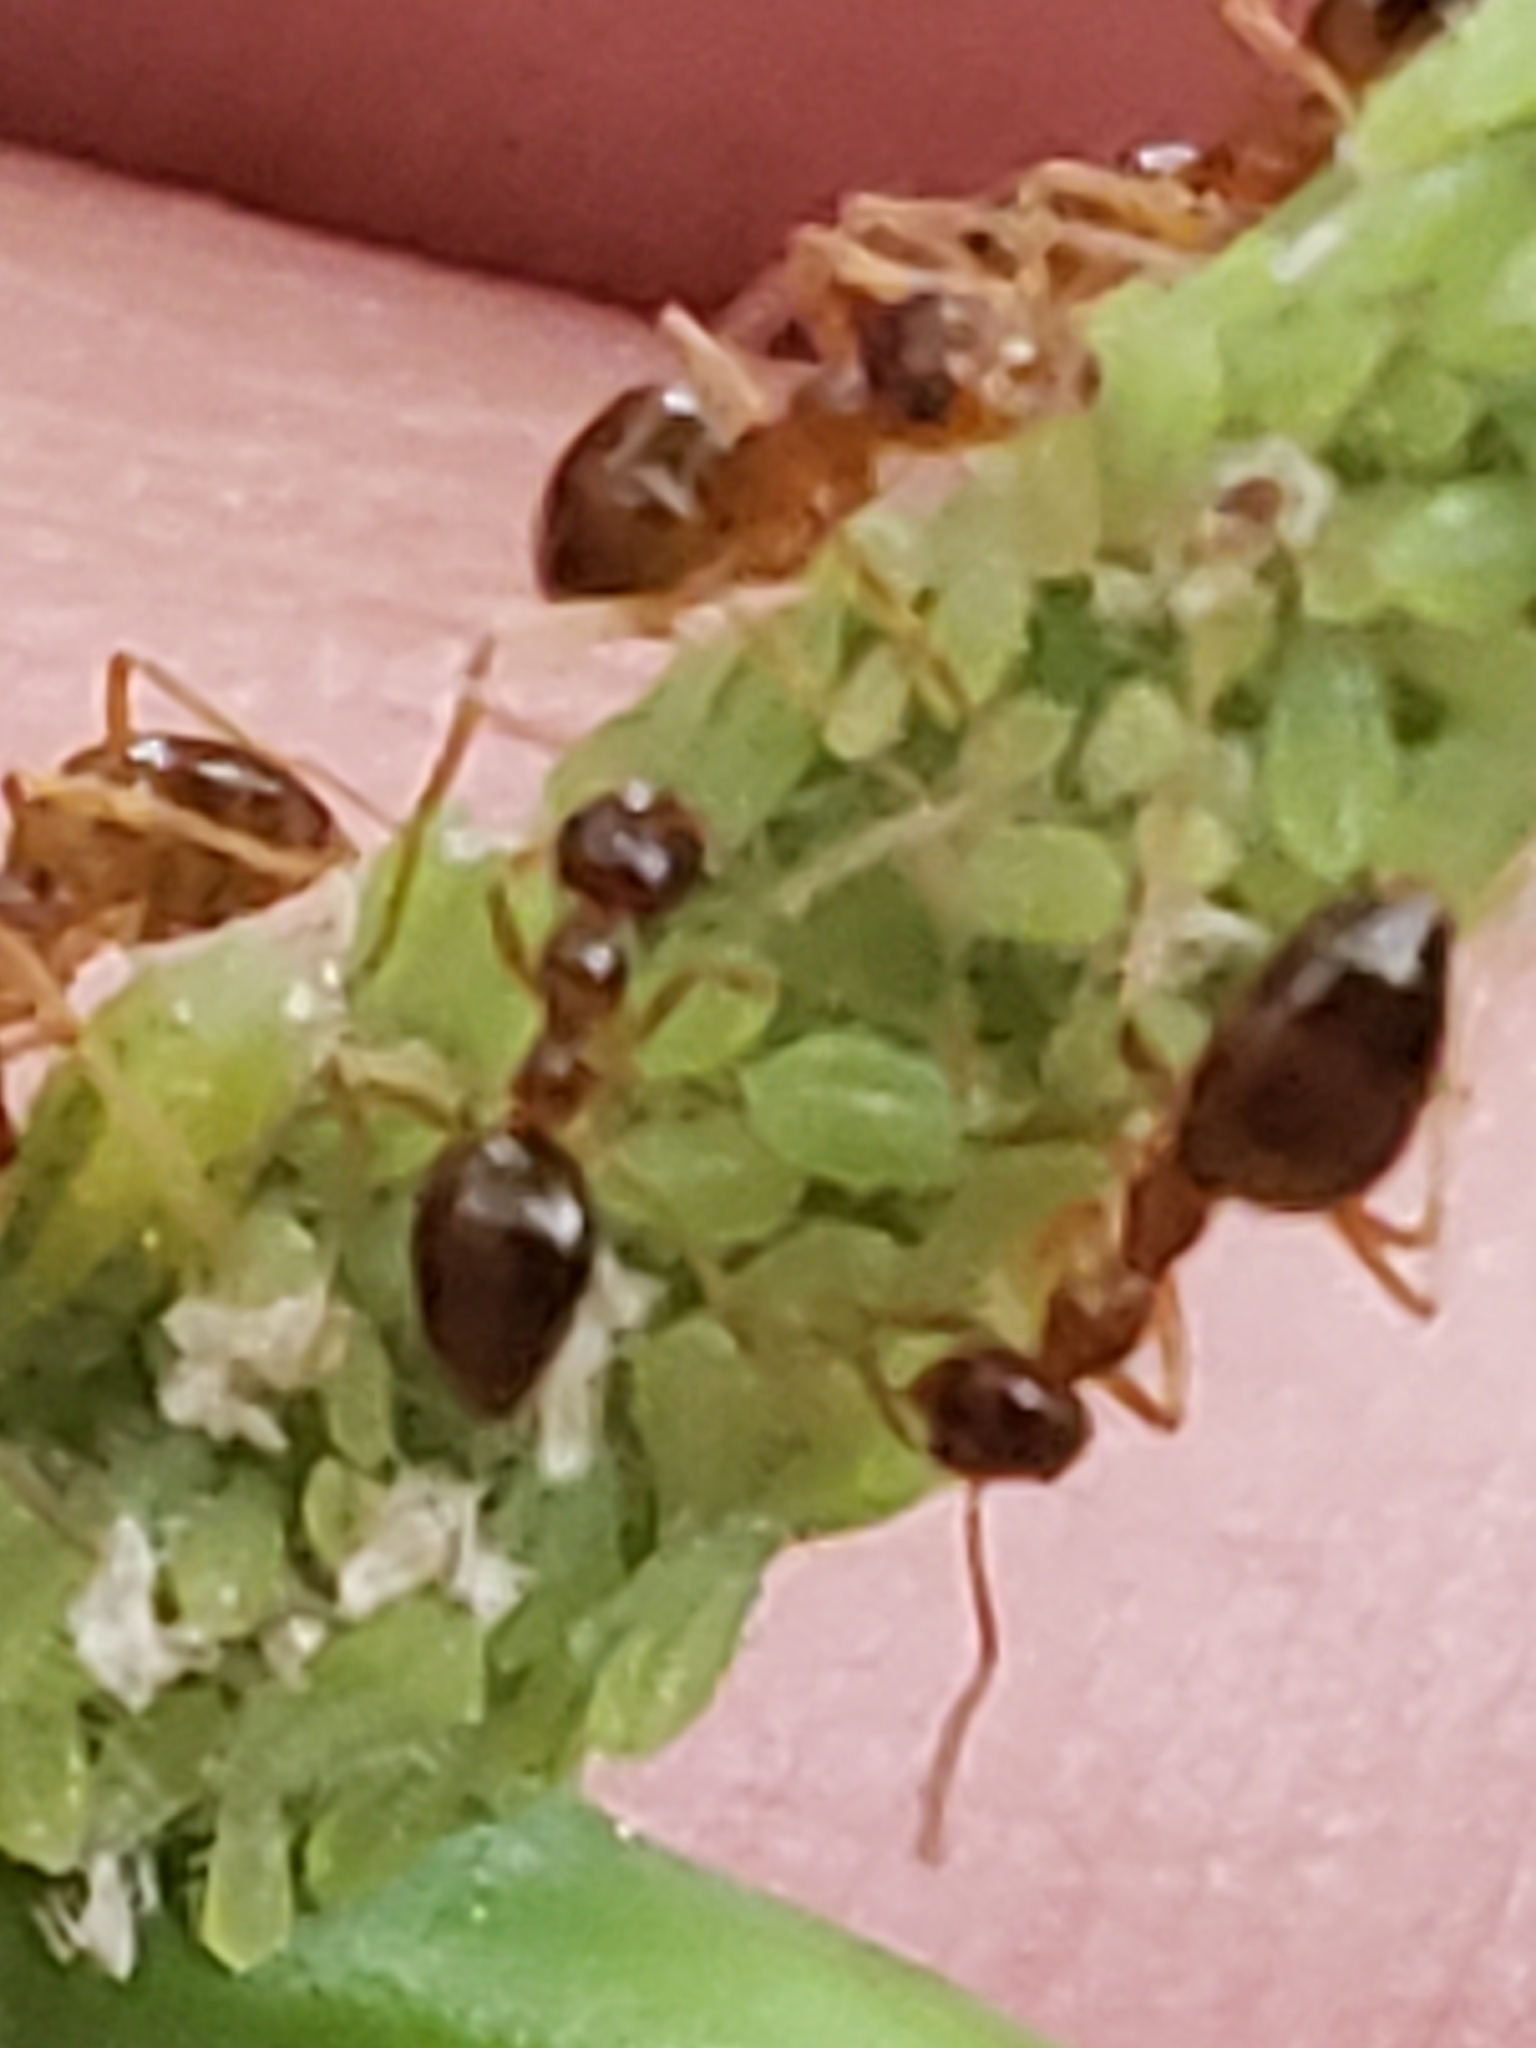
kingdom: Animalia
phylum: Arthropoda
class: Insecta
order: Hymenoptera
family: Formicidae
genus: Prenolepis
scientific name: Prenolepis imparis
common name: Small honey ant
